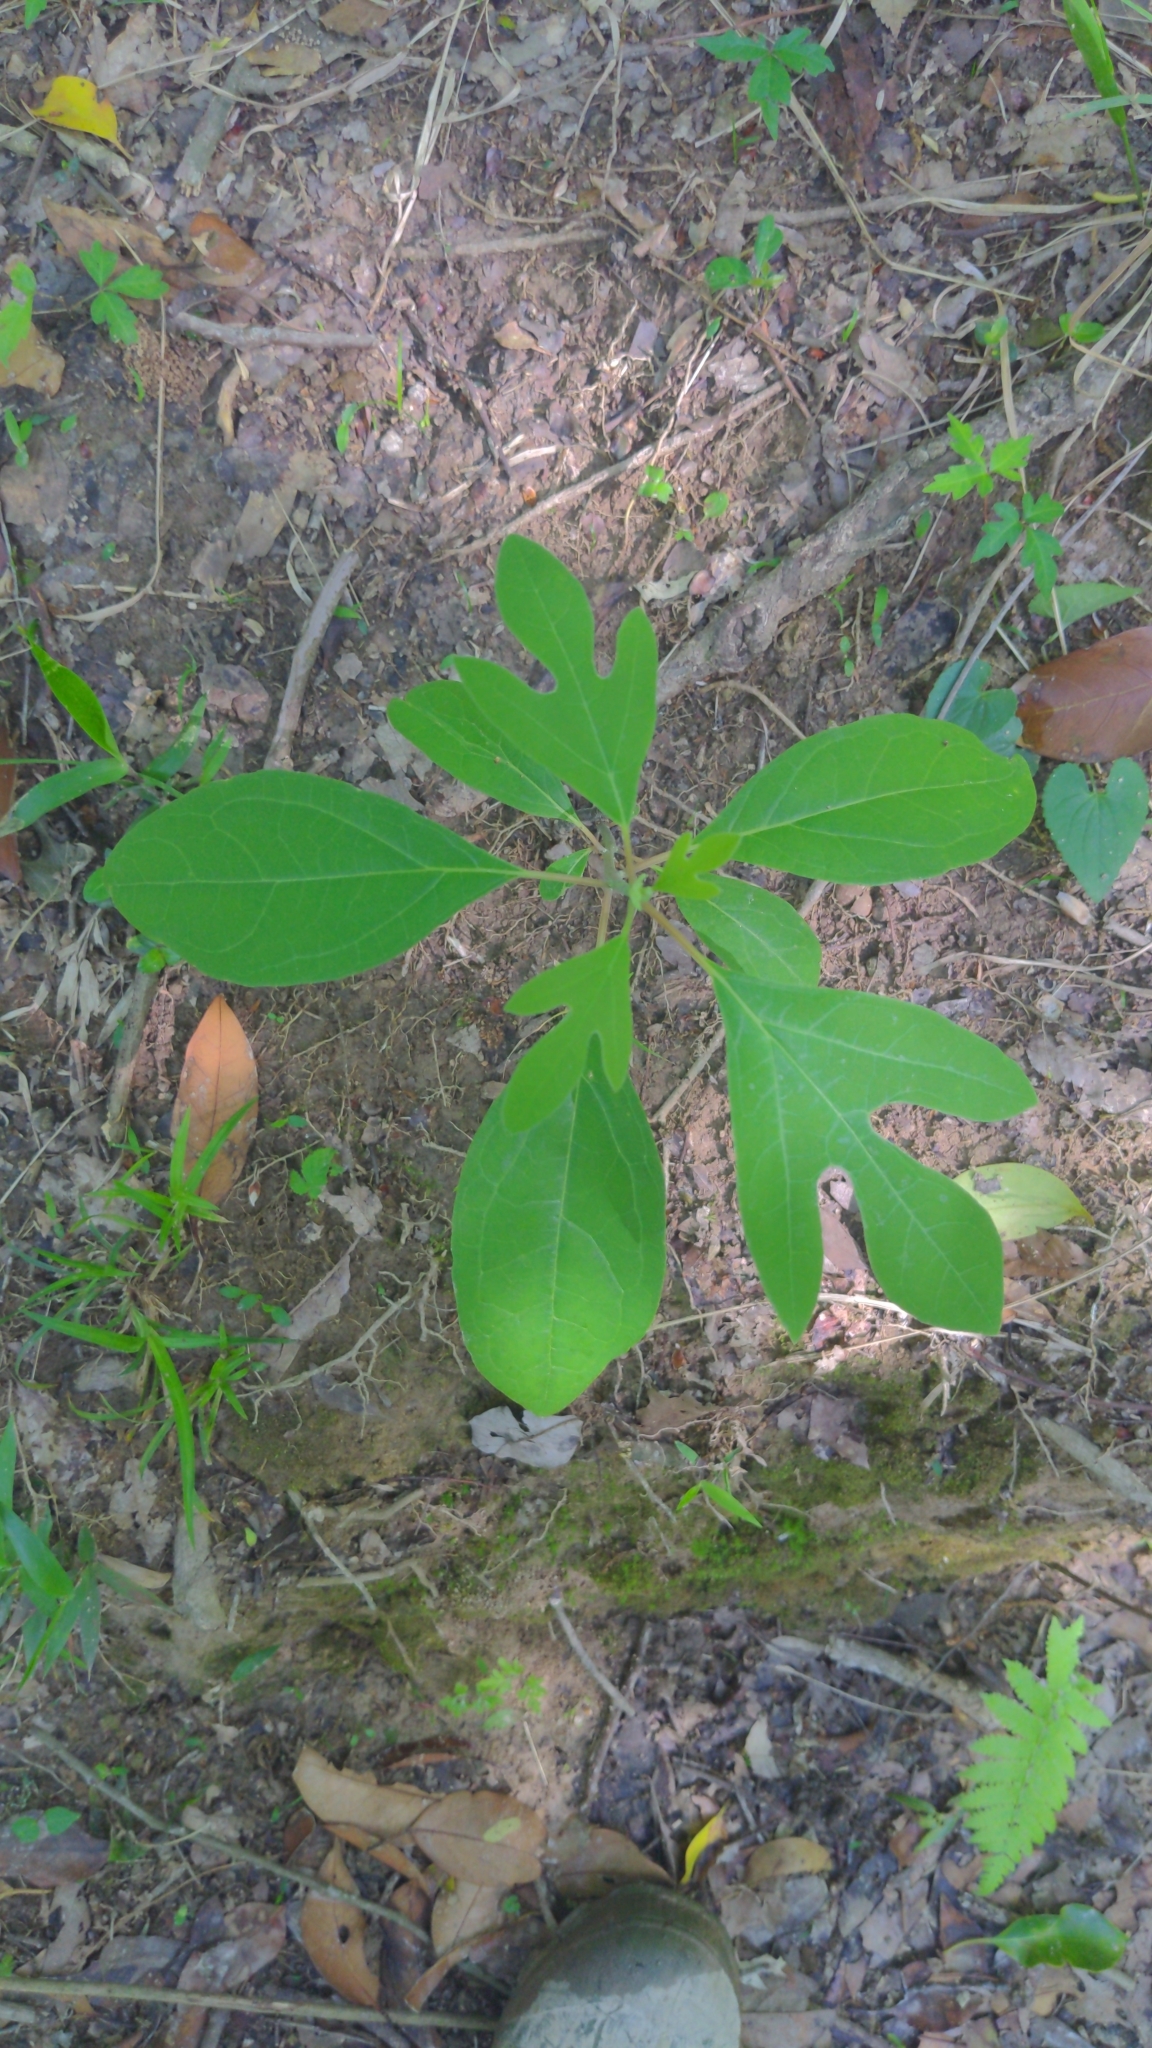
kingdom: Plantae
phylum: Tracheophyta
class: Magnoliopsida
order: Laurales
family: Lauraceae
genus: Sassafras
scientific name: Sassafras albidum
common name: Sassafras
